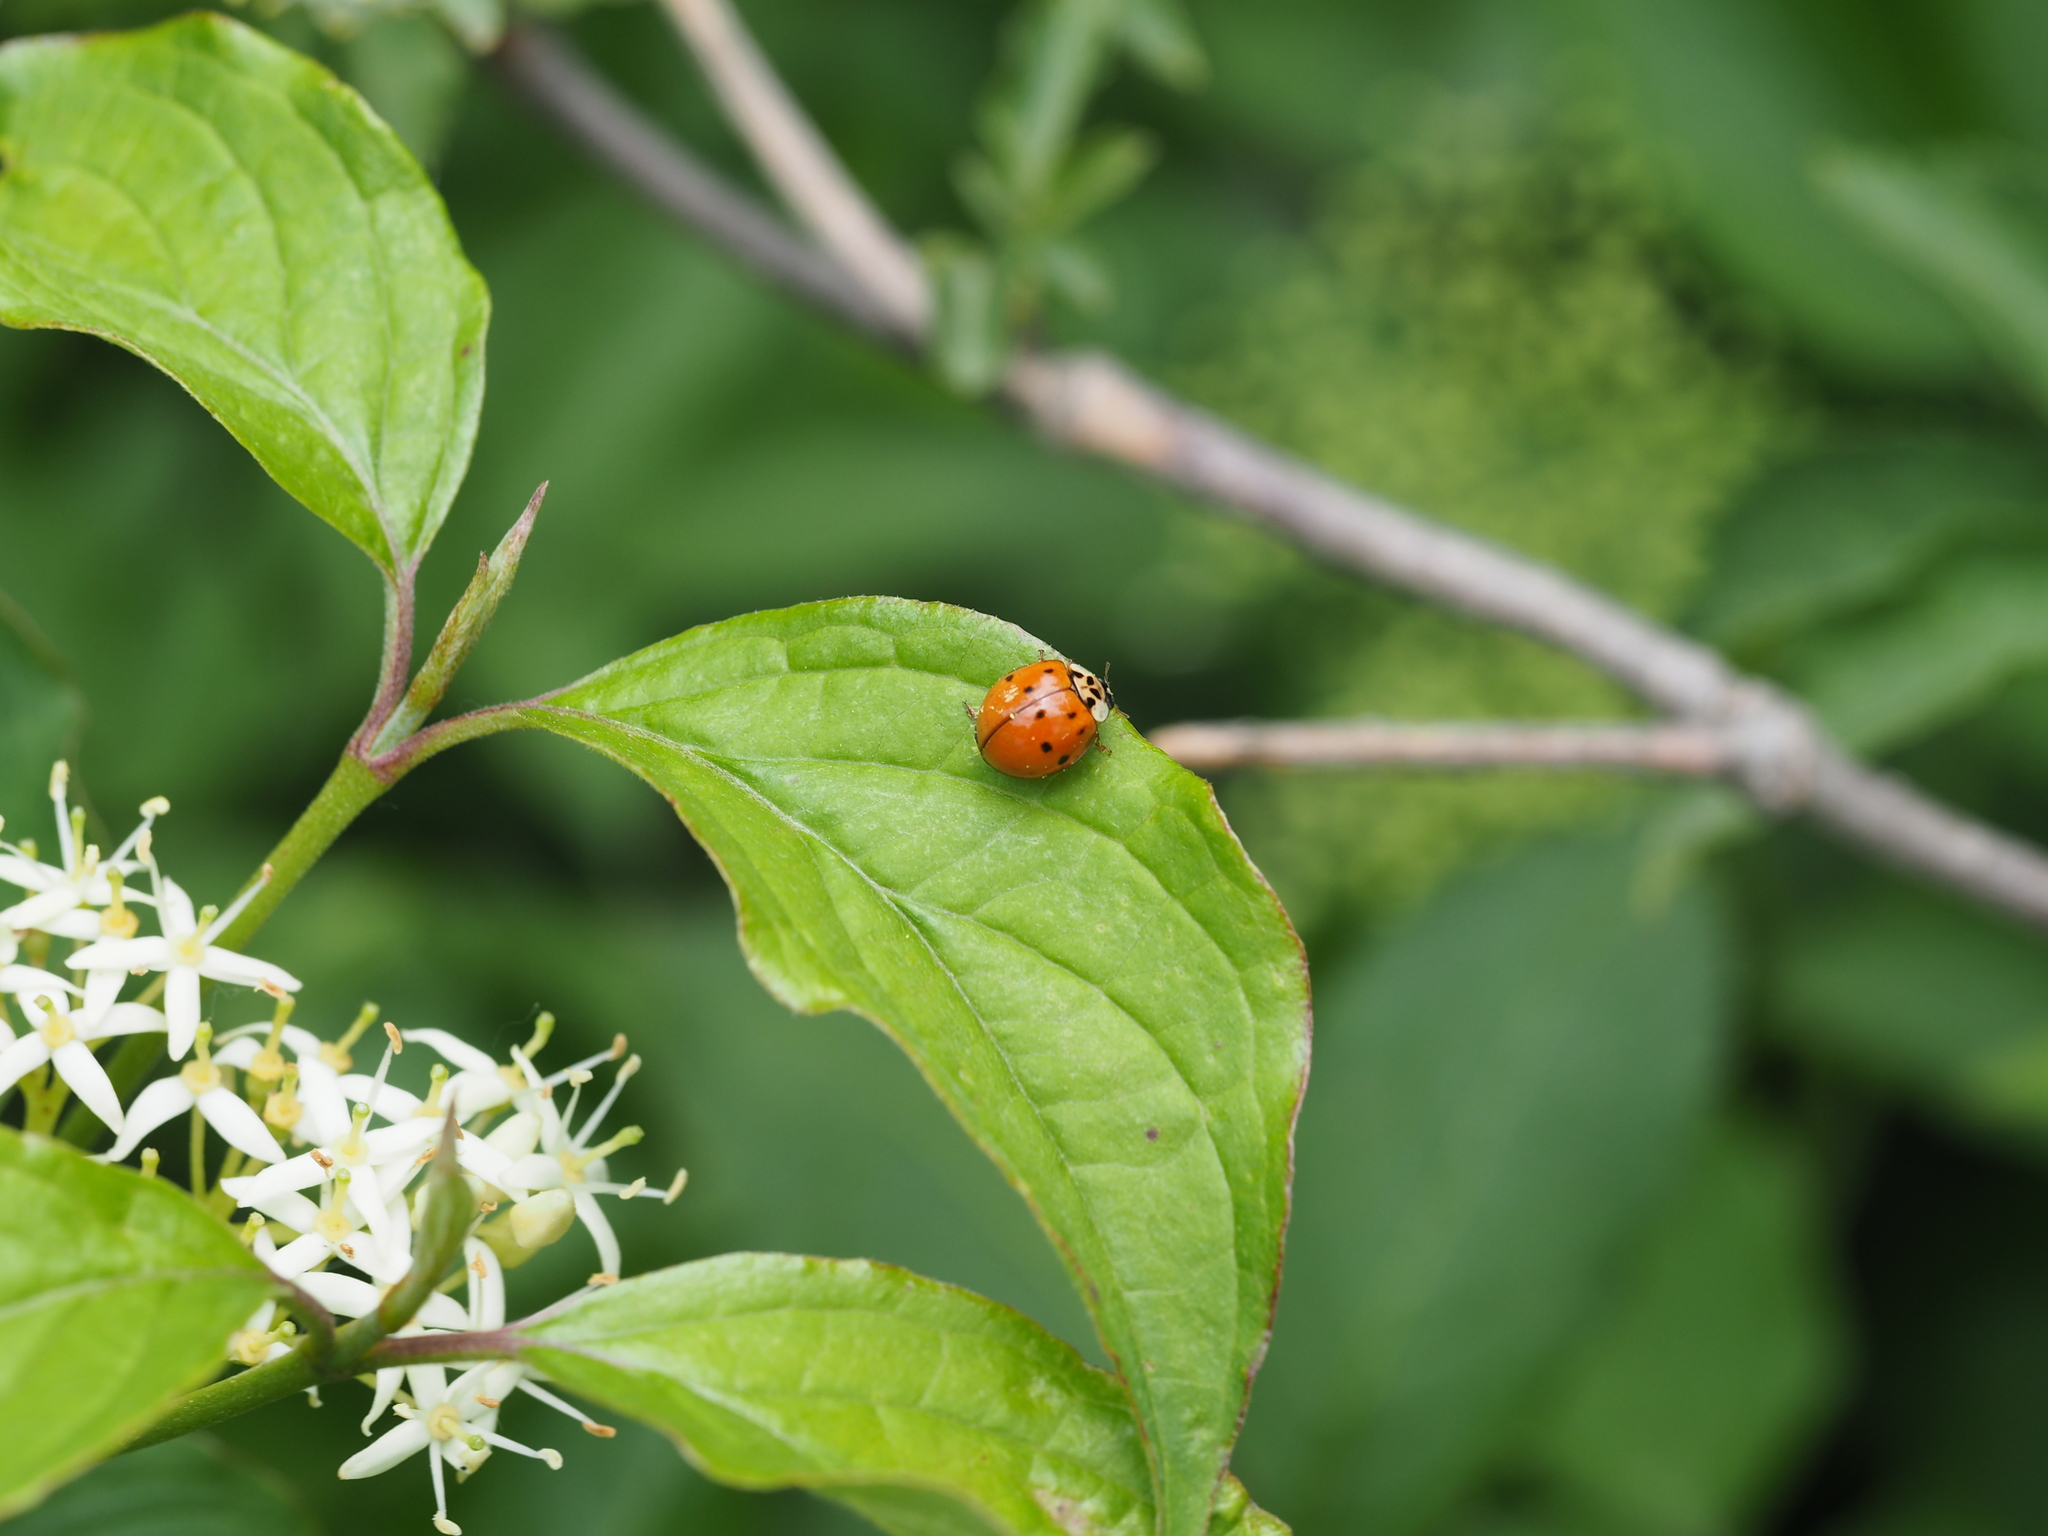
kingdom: Animalia
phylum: Arthropoda
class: Insecta
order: Coleoptera
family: Coccinellidae
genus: Harmonia
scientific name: Harmonia axyridis
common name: Harlequin ladybird
